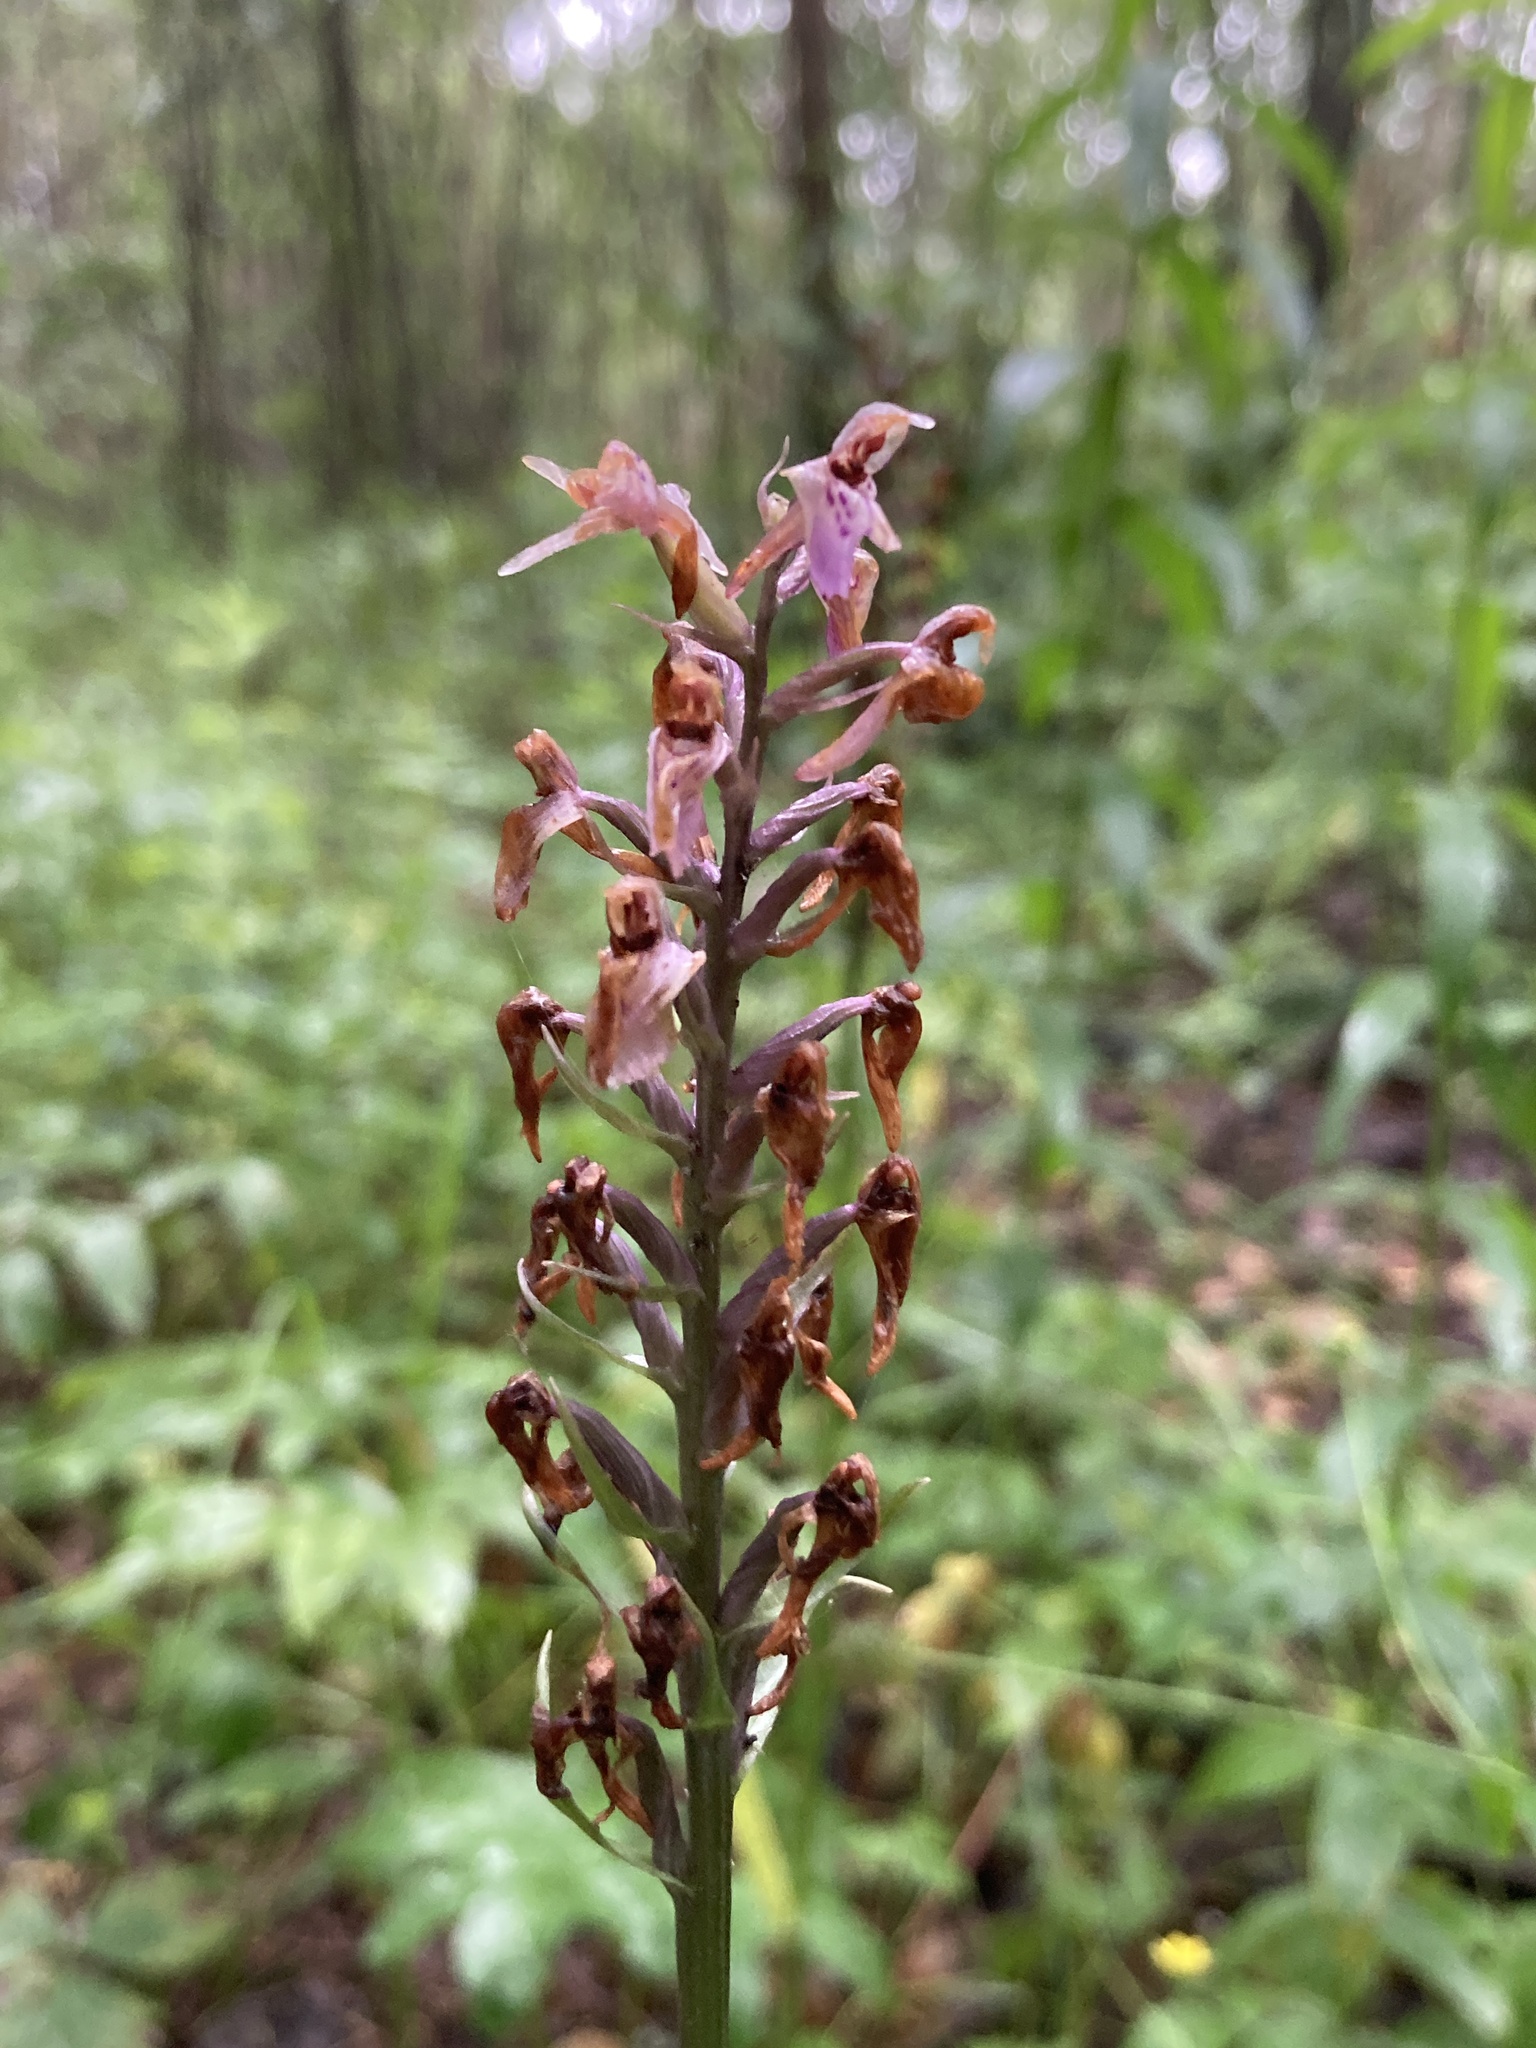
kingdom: Plantae
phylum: Tracheophyta
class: Liliopsida
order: Asparagales
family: Orchidaceae
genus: Dactylorhiza
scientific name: Dactylorhiza maculata
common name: Heath spotted-orchid
